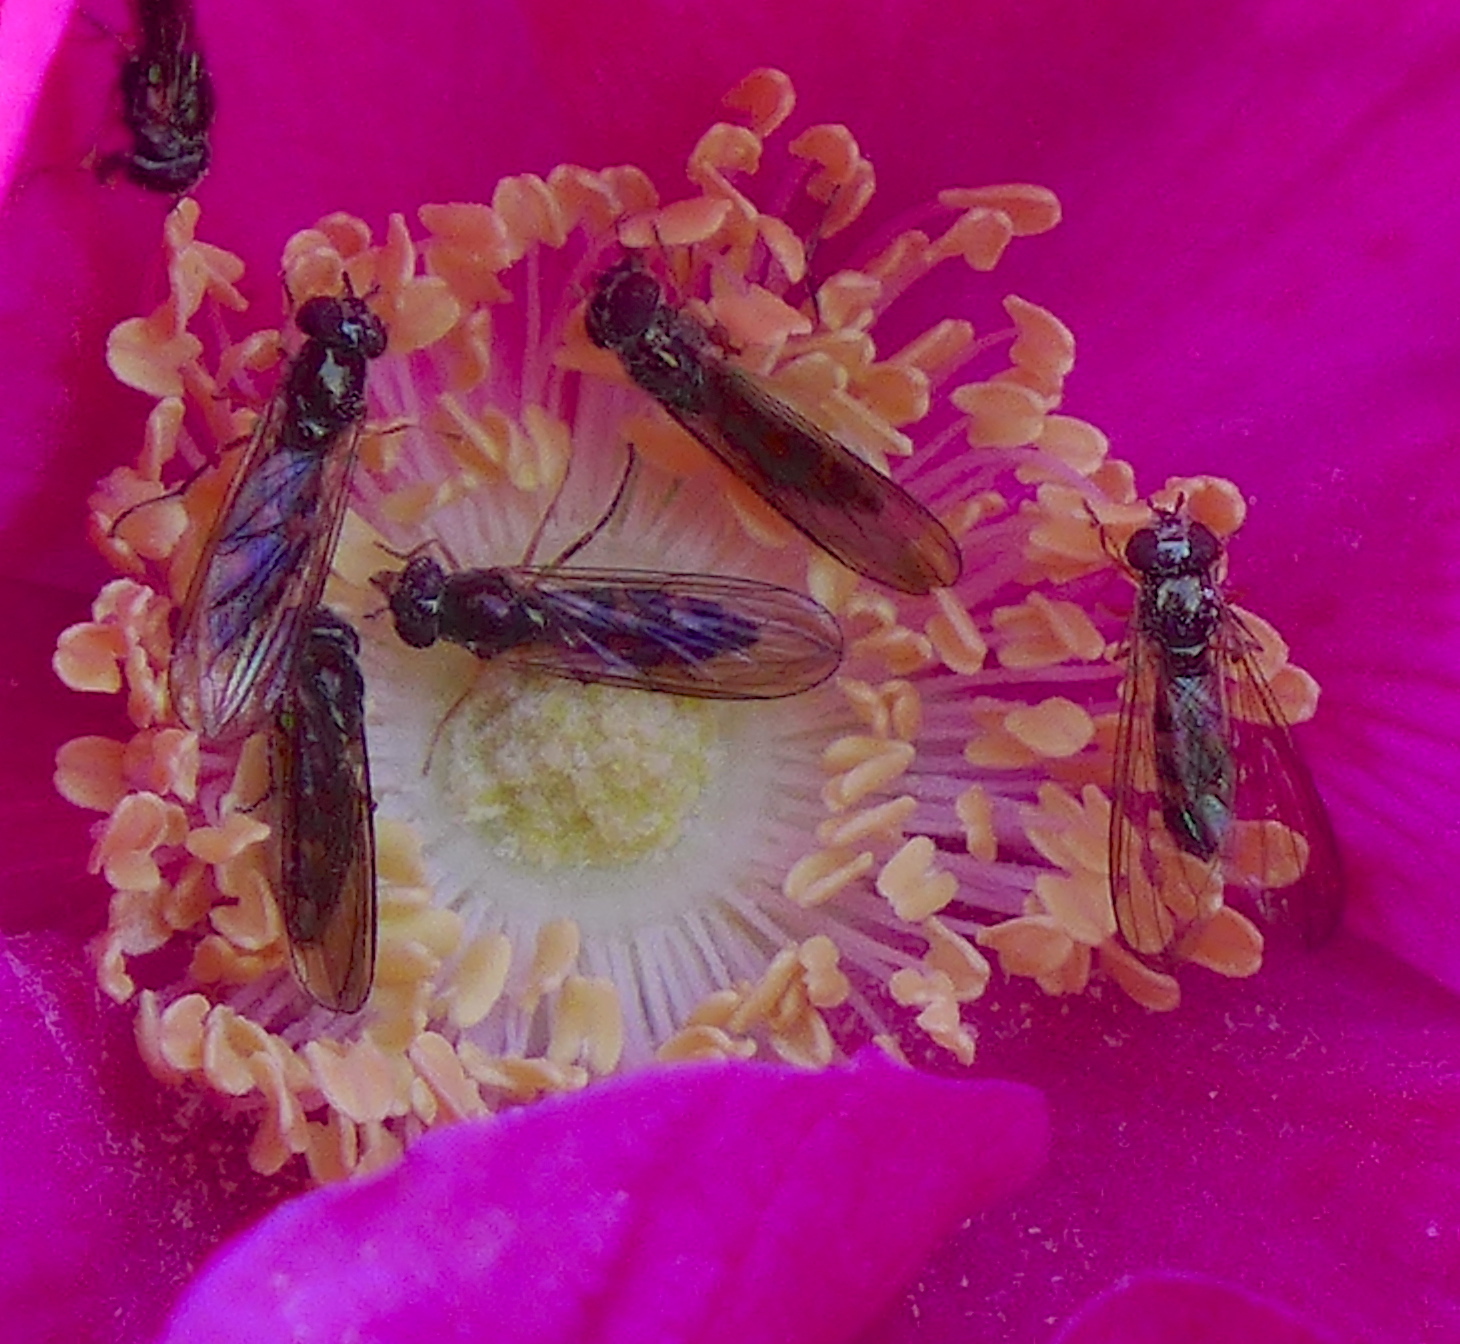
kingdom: Animalia
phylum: Arthropoda
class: Insecta
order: Diptera
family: Syrphidae
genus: Melanostoma
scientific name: Melanostoma mellina
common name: Hover fly
